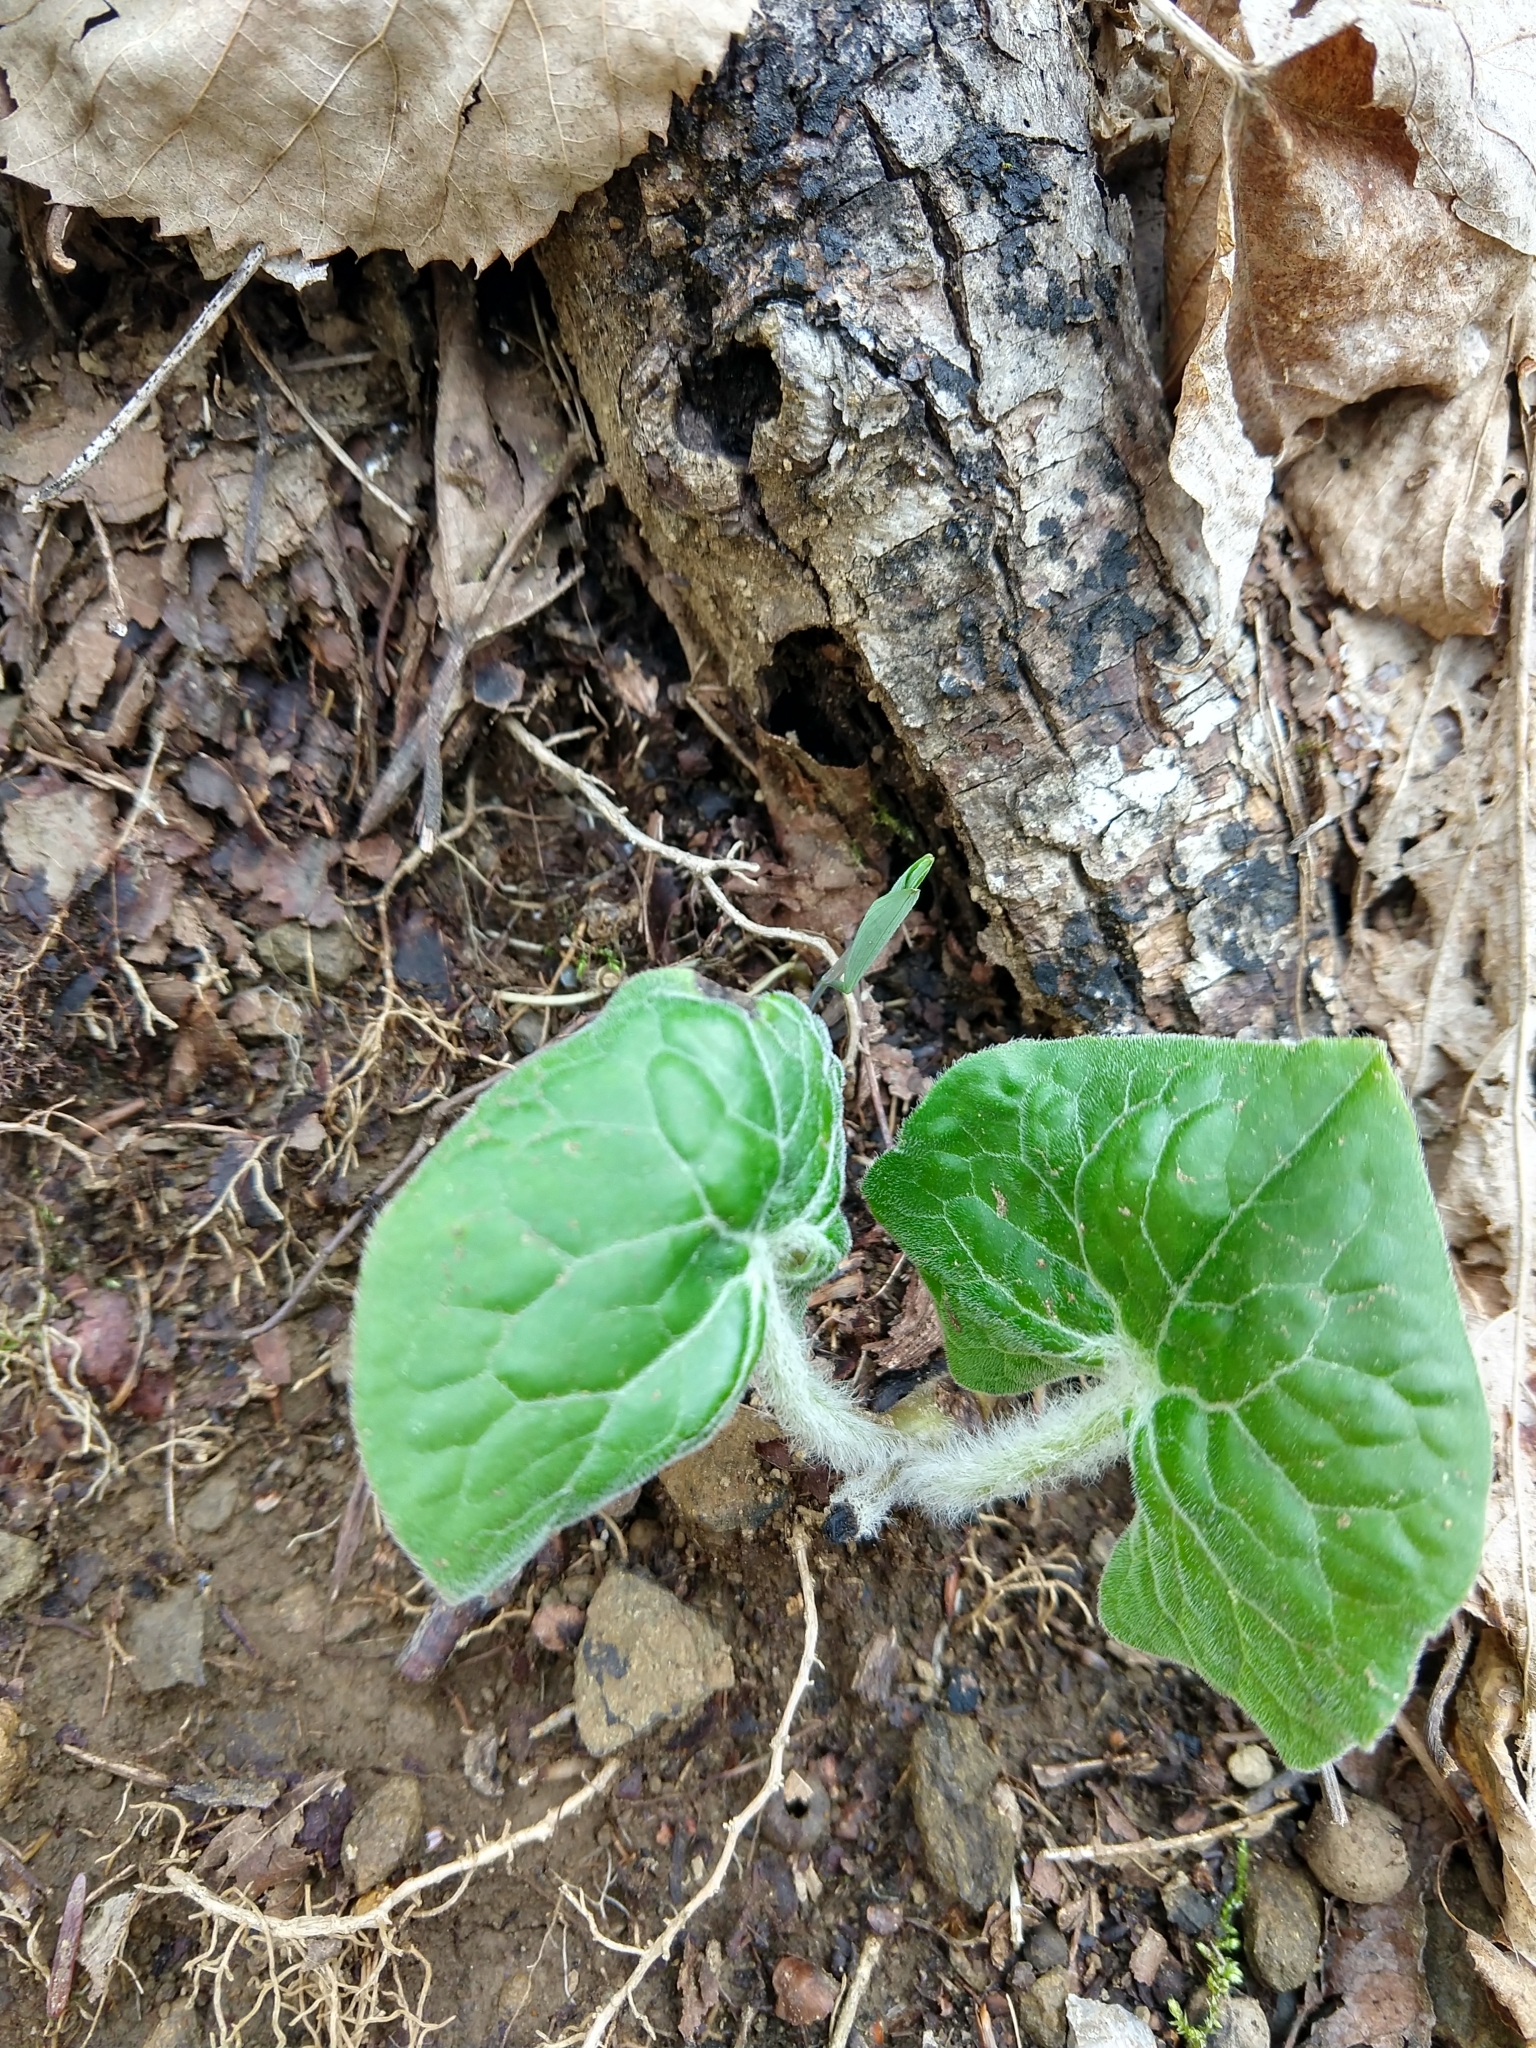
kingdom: Plantae
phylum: Tracheophyta
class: Magnoliopsida
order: Piperales
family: Aristolochiaceae
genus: Asarum
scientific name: Asarum canadense
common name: Wild ginger
